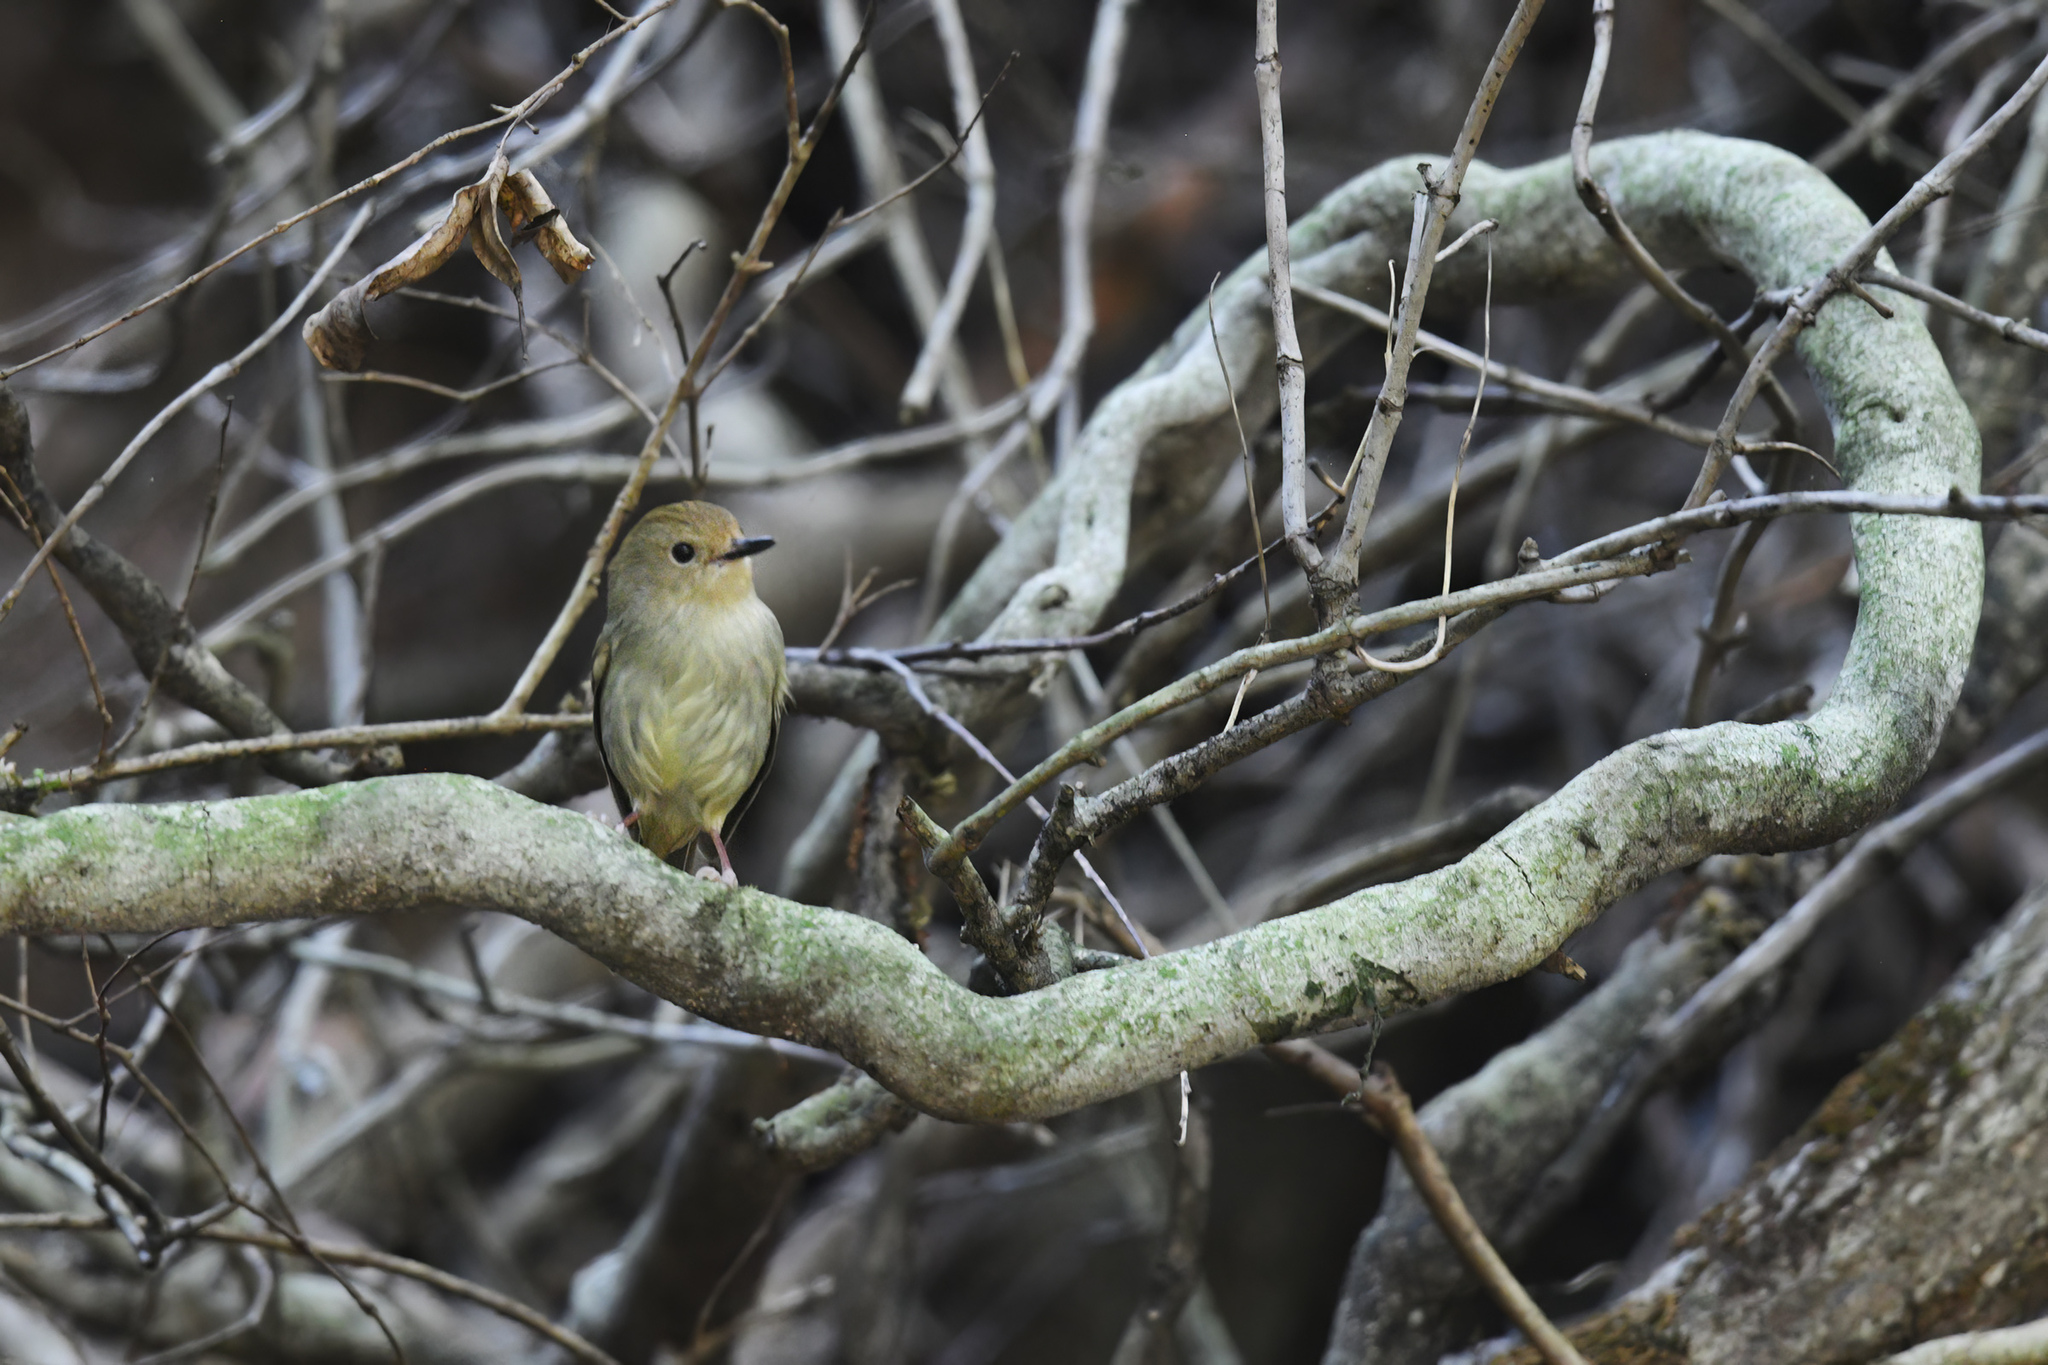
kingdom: Animalia
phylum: Chordata
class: Aves
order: Passeriformes
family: Acanthizidae
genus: Sericornis
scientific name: Sericornis magnirostra
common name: Large-billed scrubwren
